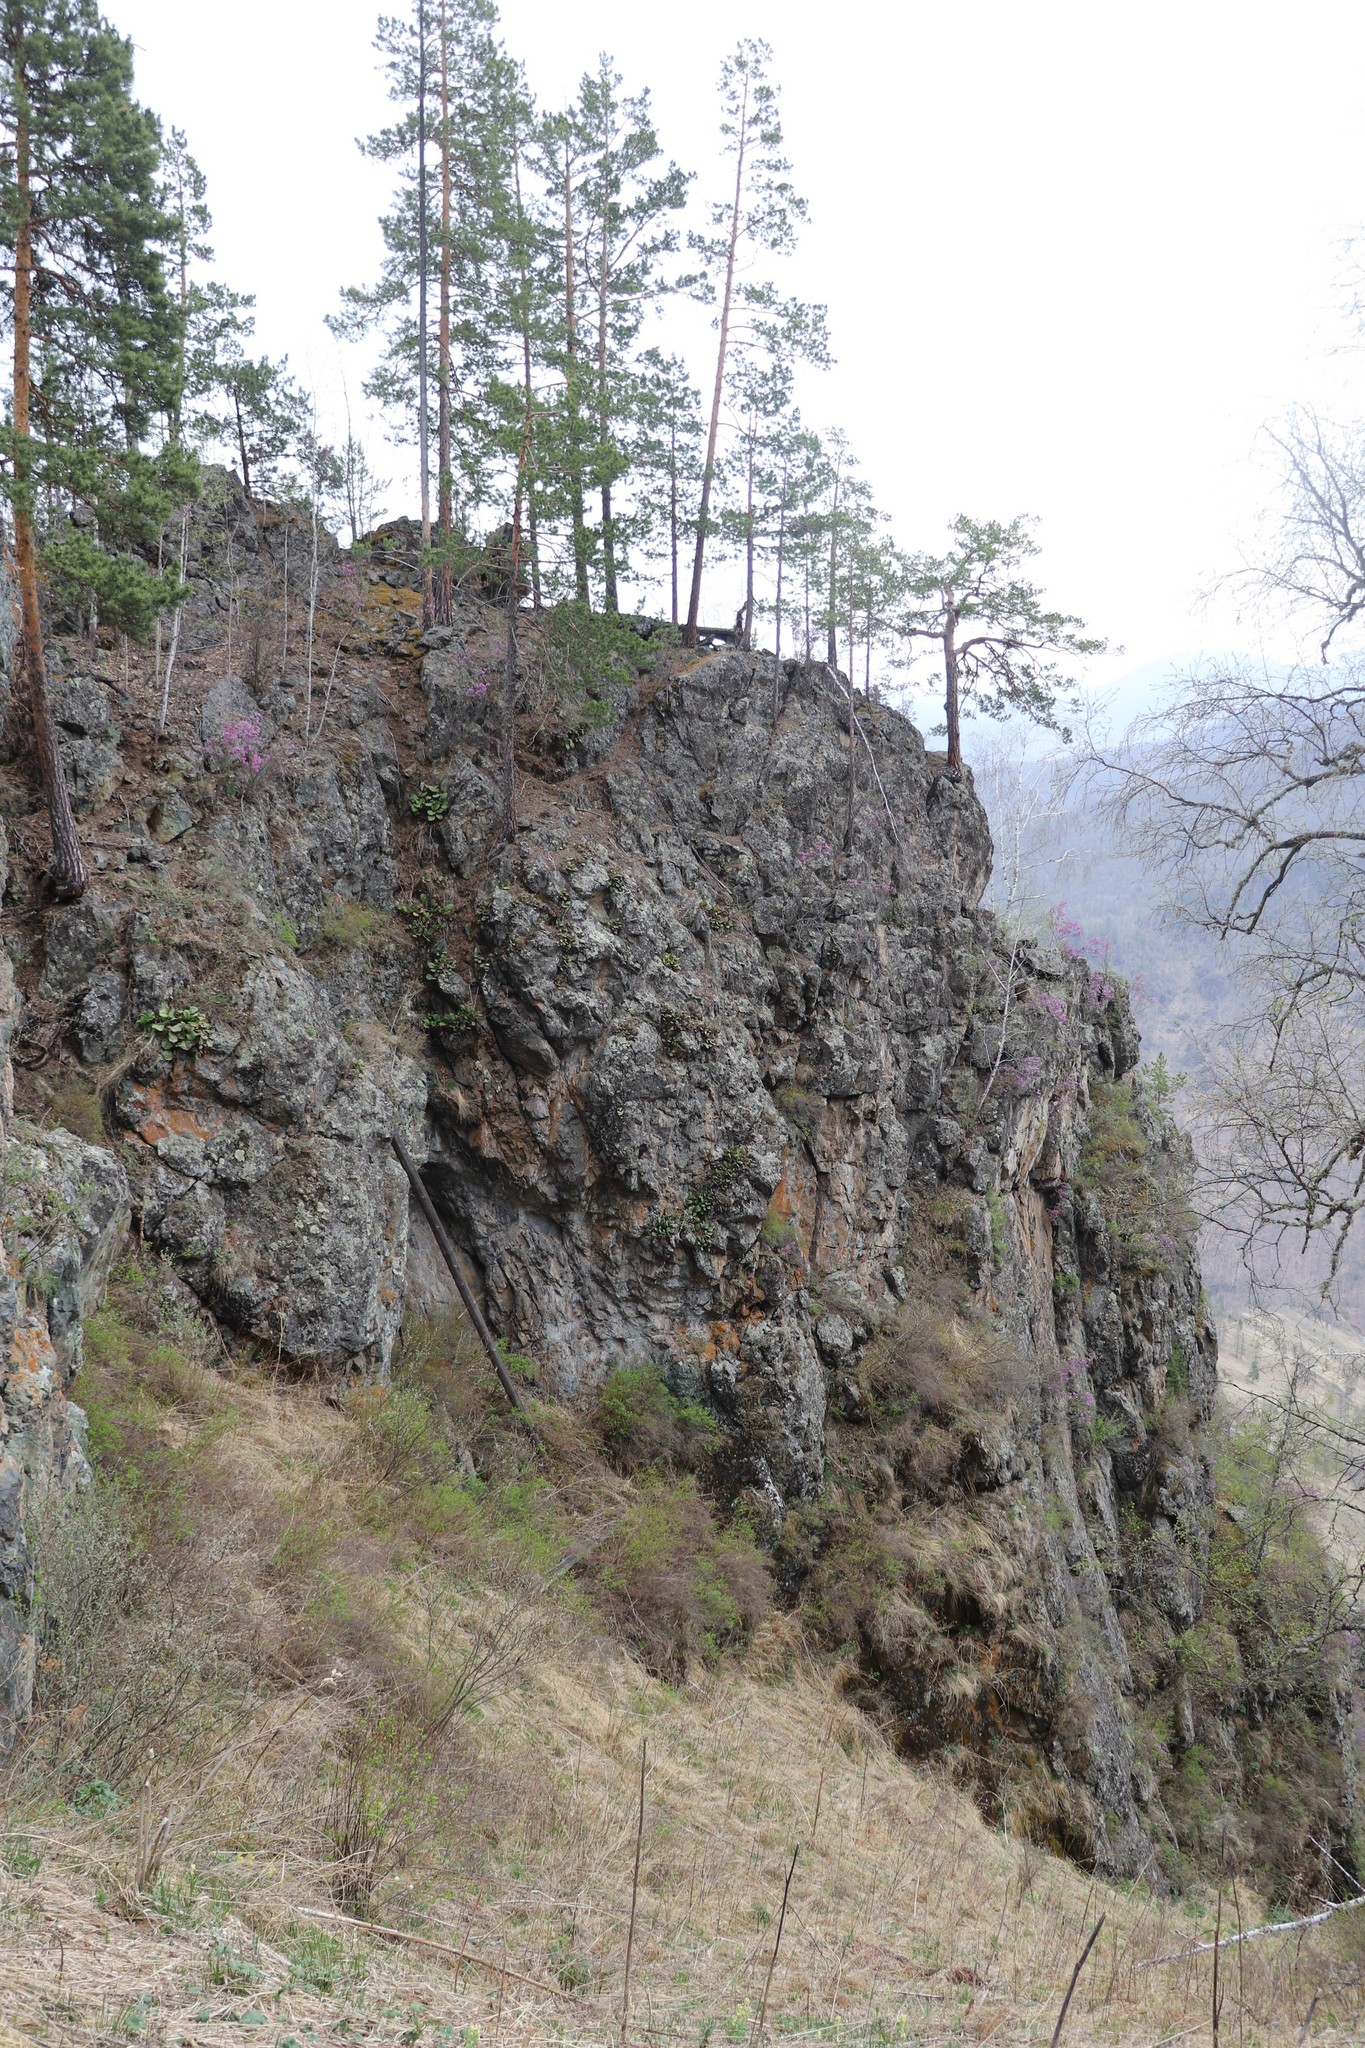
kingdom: Plantae
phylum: Tracheophyta
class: Pinopsida
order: Pinales
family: Pinaceae
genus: Pinus
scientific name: Pinus sylvestris
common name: Scots pine
